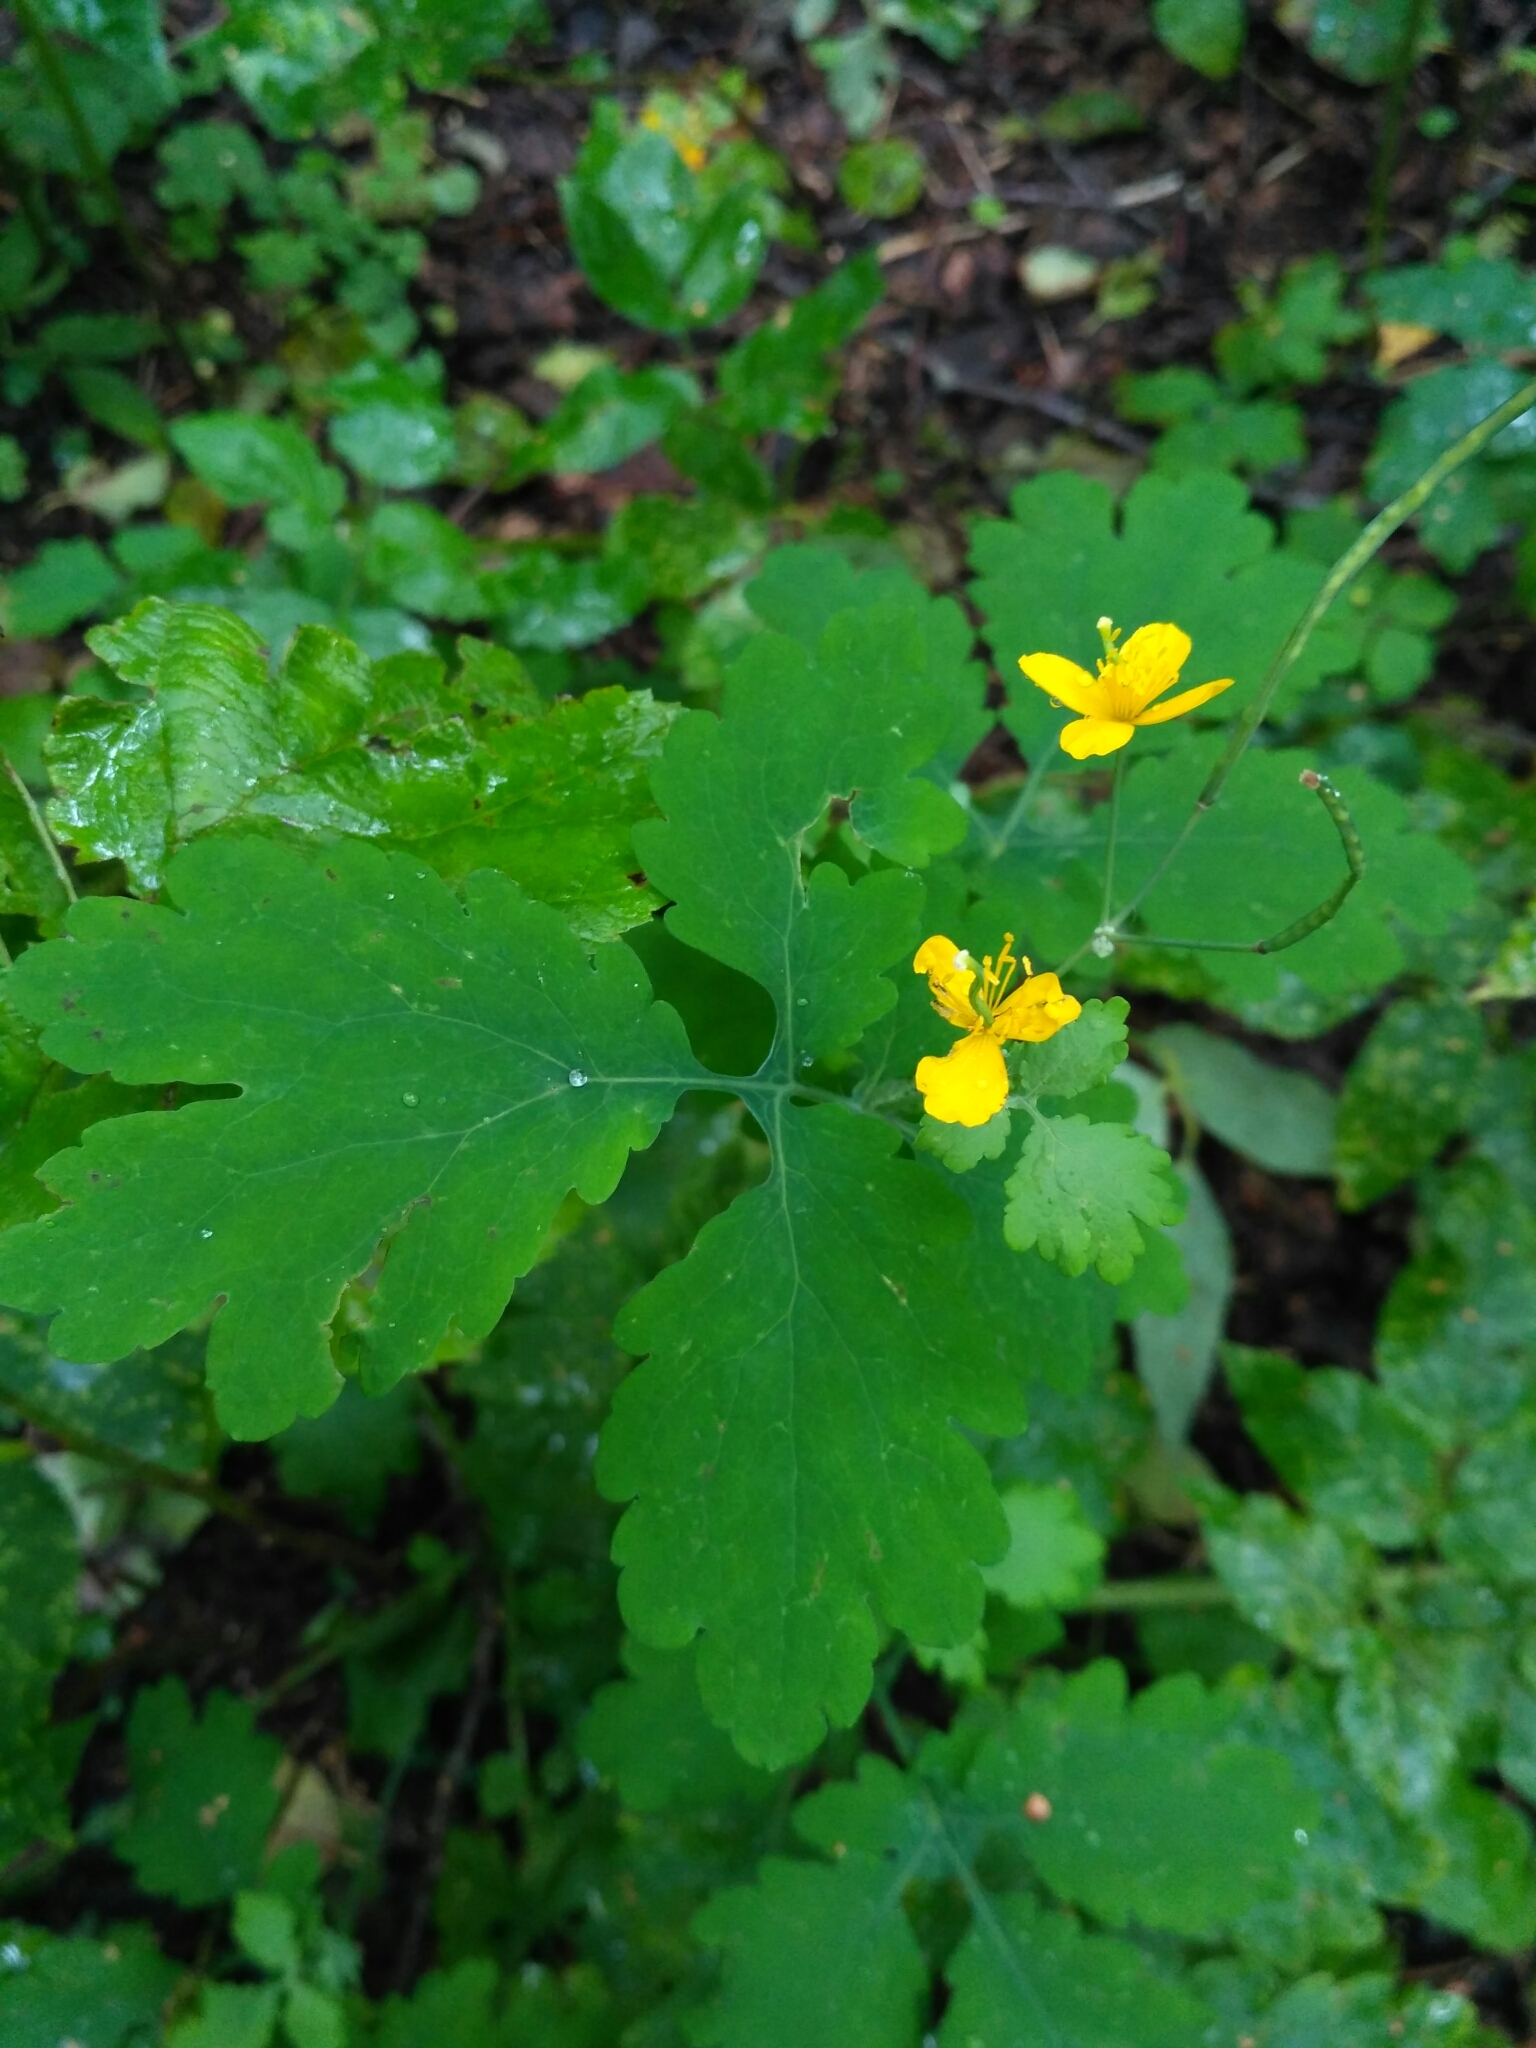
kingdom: Plantae
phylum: Tracheophyta
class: Magnoliopsida
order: Ranunculales
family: Papaveraceae
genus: Chelidonium
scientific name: Chelidonium majus
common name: Greater celandine
